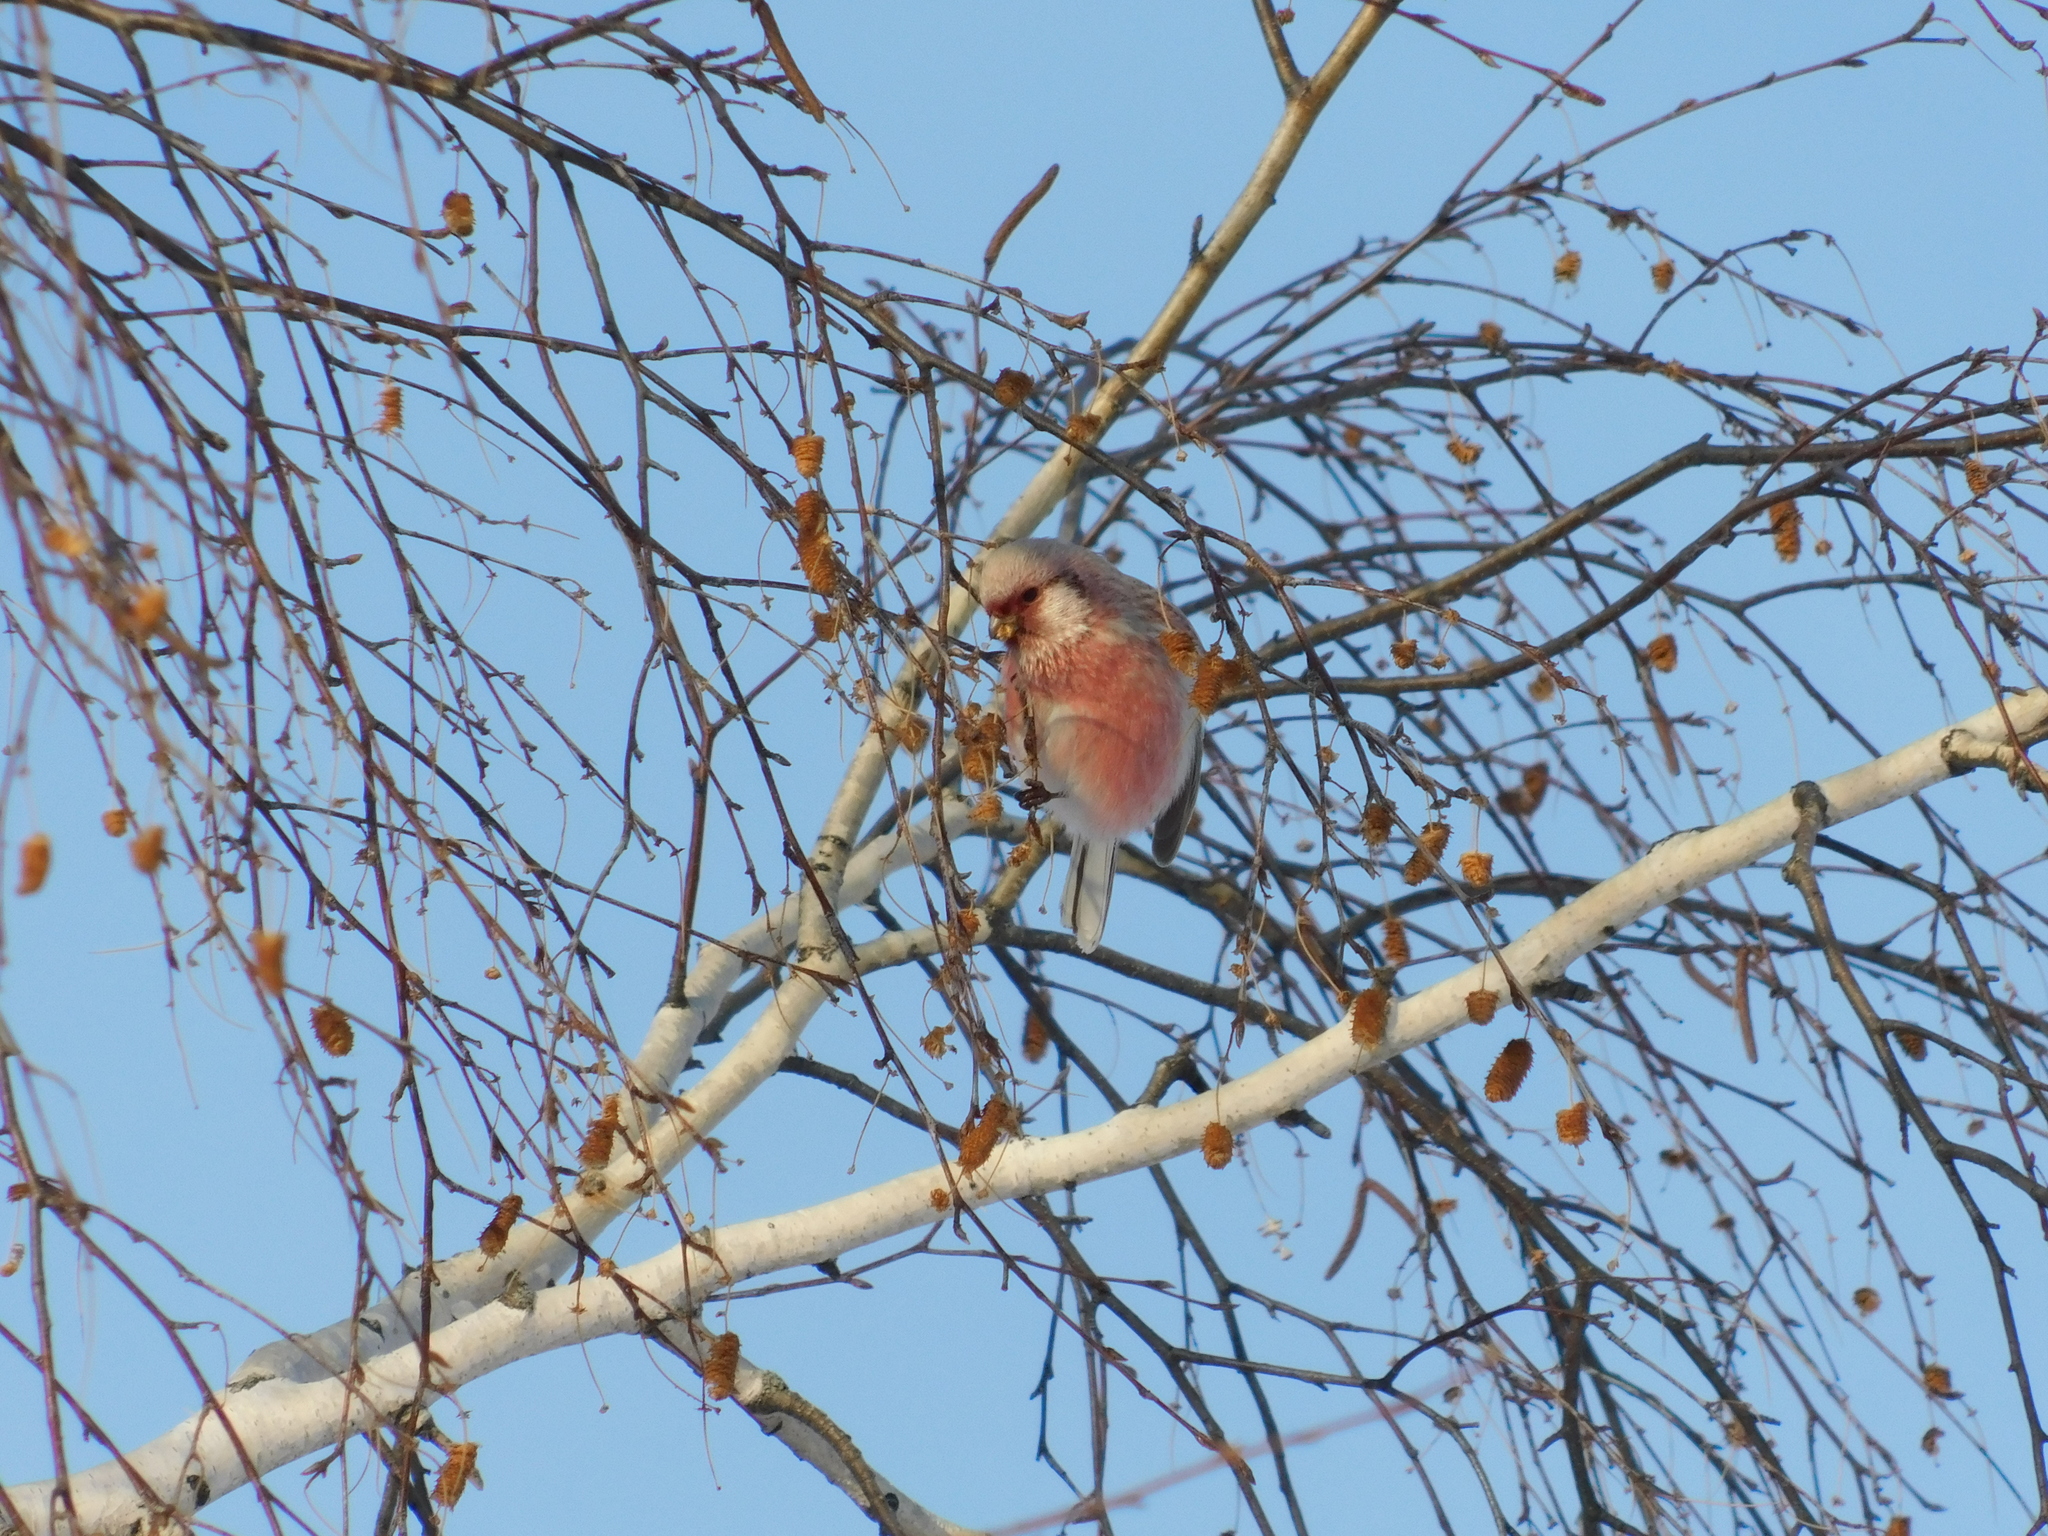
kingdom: Animalia
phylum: Chordata
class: Aves
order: Passeriformes
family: Fringillidae
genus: Carpodacus
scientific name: Carpodacus sibiricus
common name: Long-tailed rosefinch
